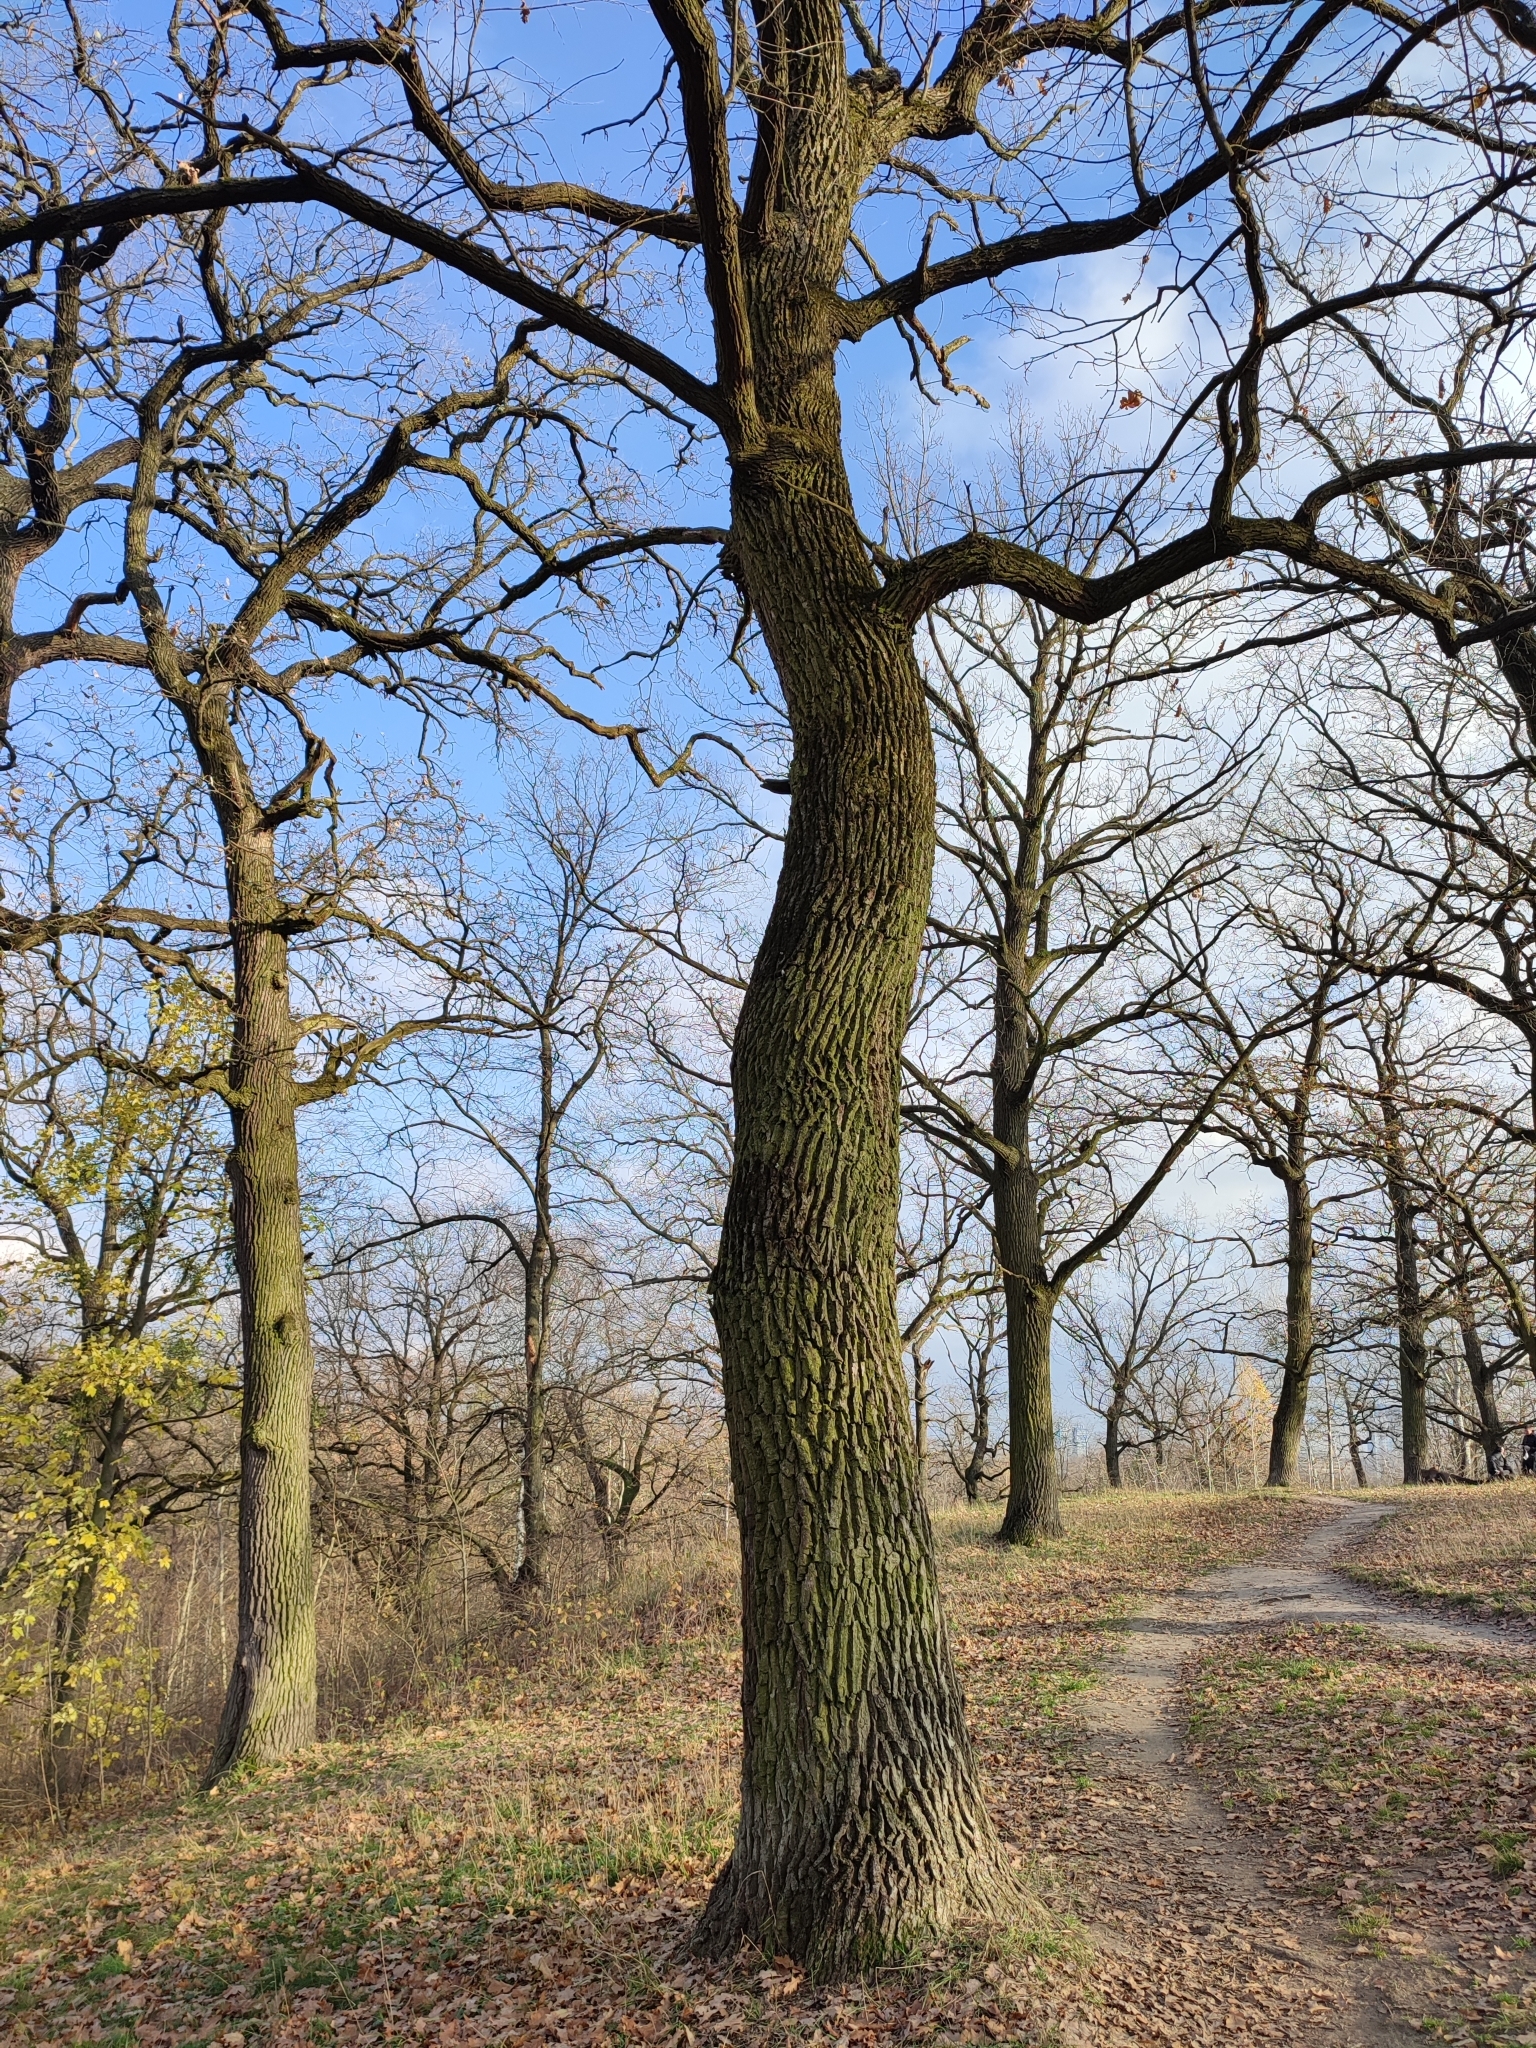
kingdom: Plantae
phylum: Tracheophyta
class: Magnoliopsida
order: Fagales
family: Fagaceae
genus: Quercus
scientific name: Quercus robur
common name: Pedunculate oak
